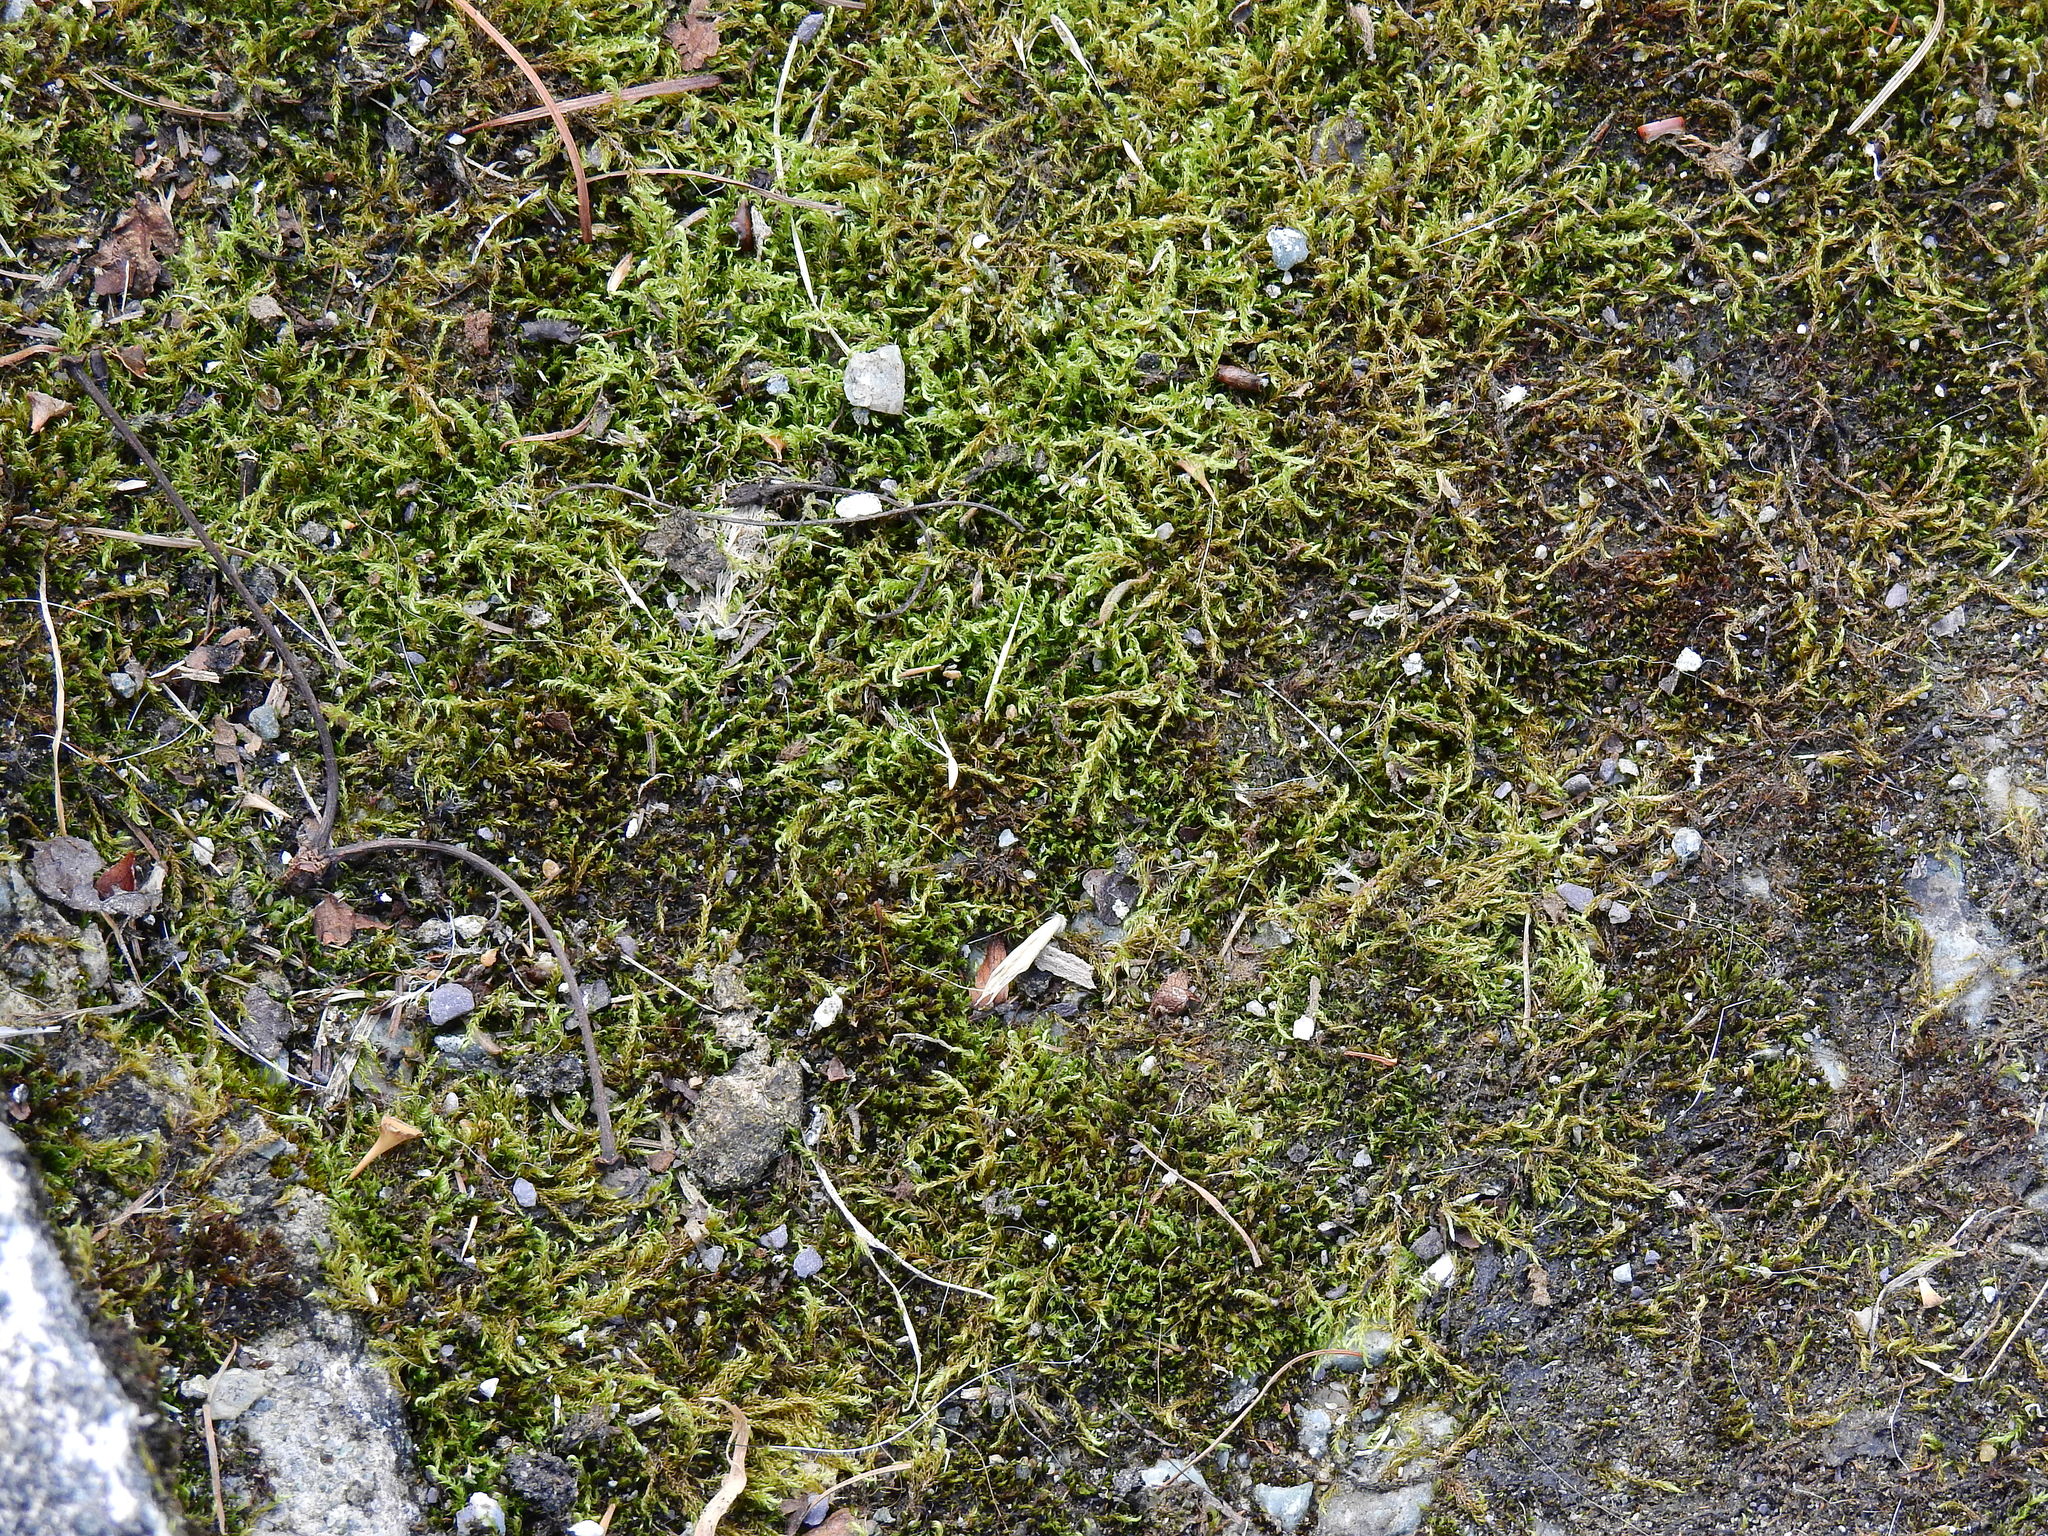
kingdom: Plantae
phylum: Bryophyta
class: Bryopsida
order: Hypnales
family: Pylaisiaceae
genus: Calliergonella
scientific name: Calliergonella lindbergii
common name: Lindberg's plait-moss
